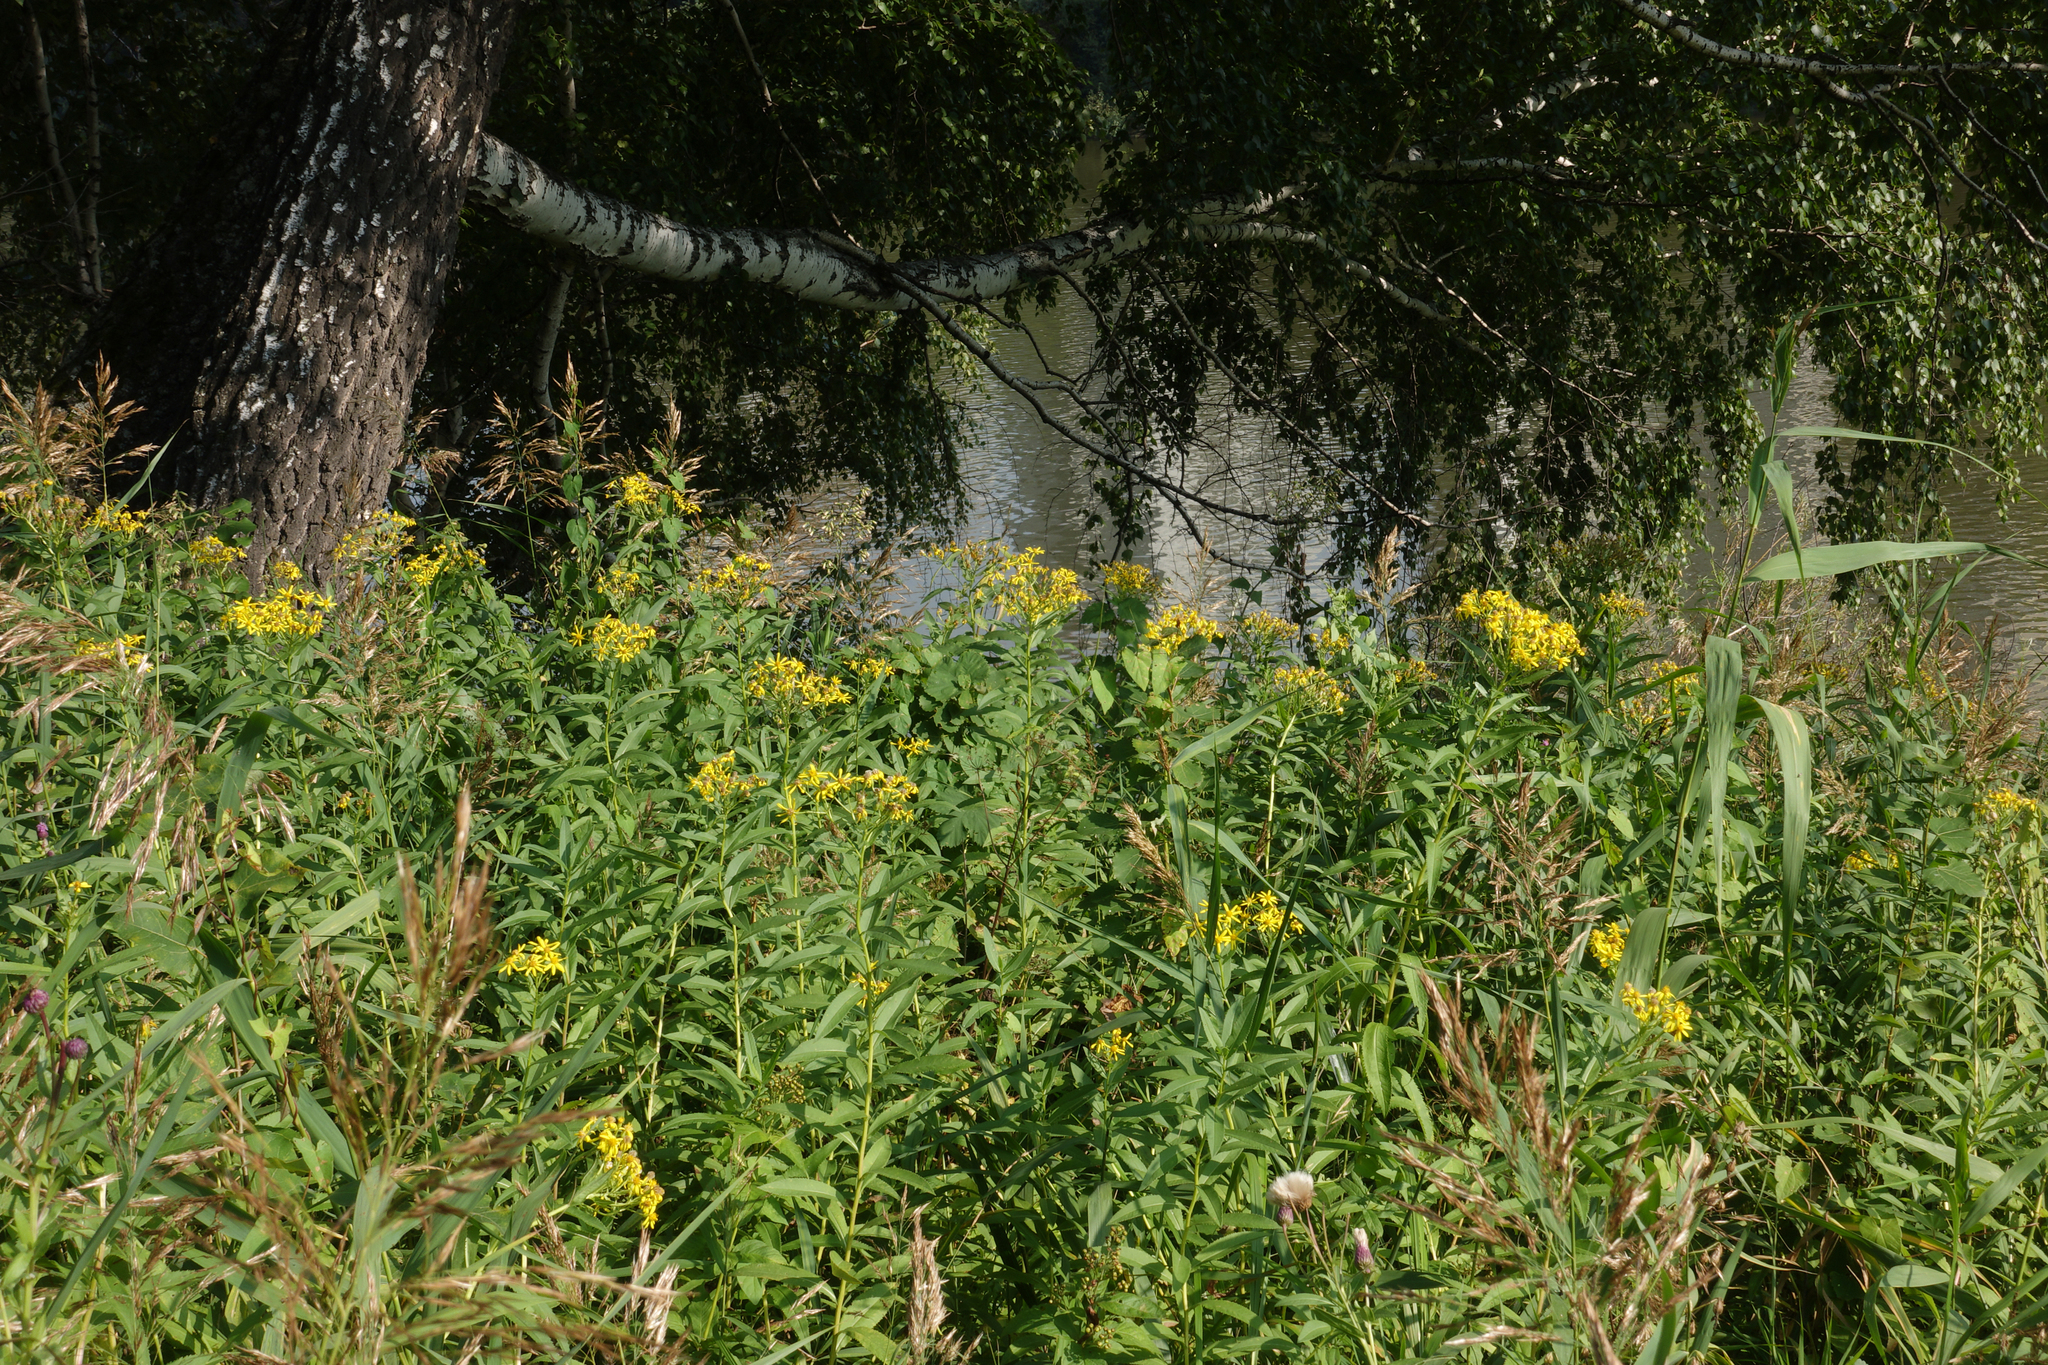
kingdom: Plantae
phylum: Tracheophyta
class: Magnoliopsida
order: Asterales
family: Asteraceae
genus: Senecio
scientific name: Senecio sarracenicus
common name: Broad-leaved ragwort
